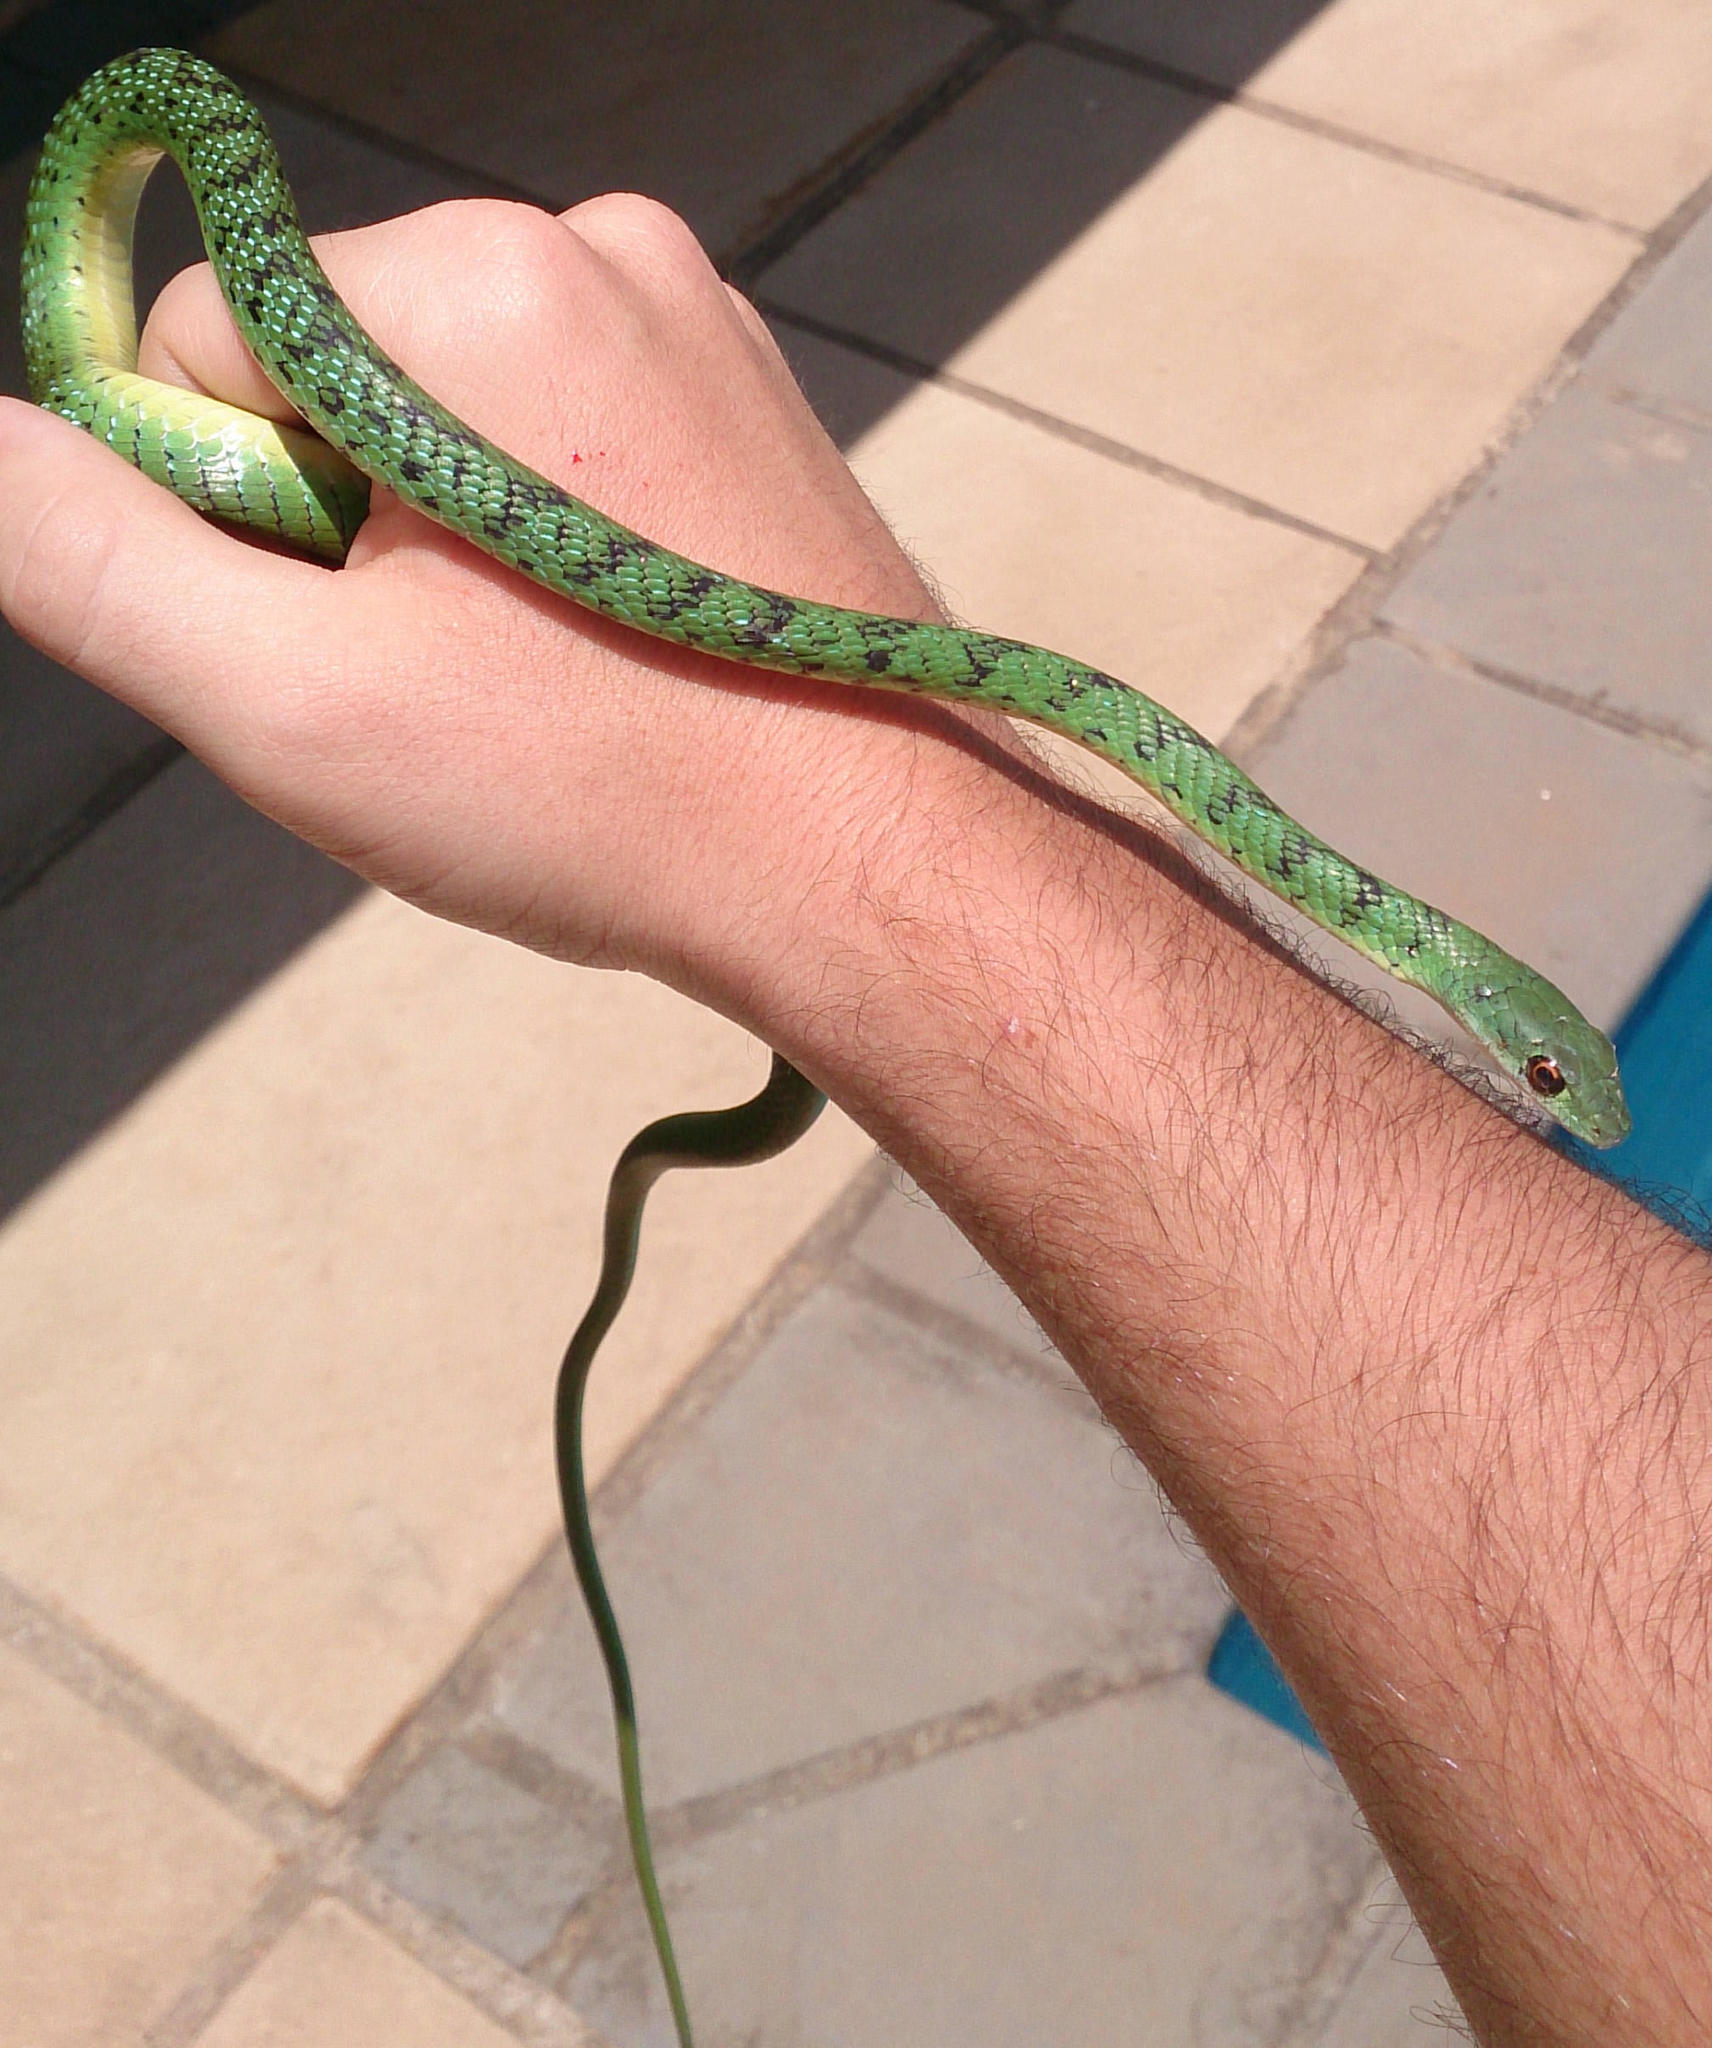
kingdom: Animalia
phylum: Chordata
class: Squamata
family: Colubridae
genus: Philothamnus
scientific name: Philothamnus semivariegatus
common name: Spotted bush snake
